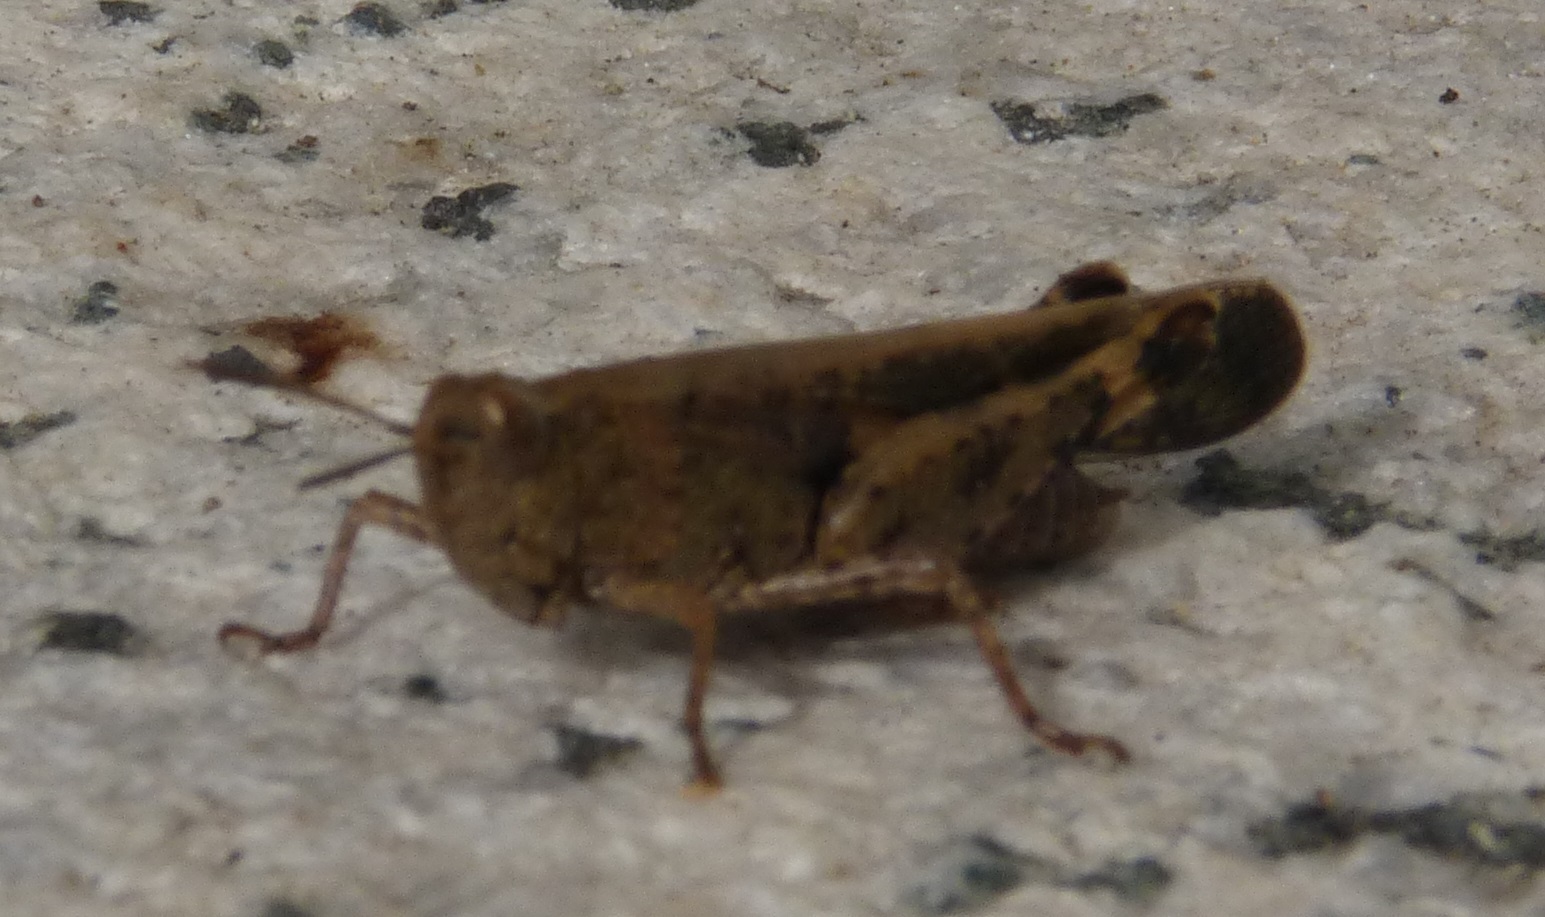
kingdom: Animalia
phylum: Arthropoda
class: Insecta
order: Orthoptera
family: Acrididae
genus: Aiolopus
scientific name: Aiolopus strepens
